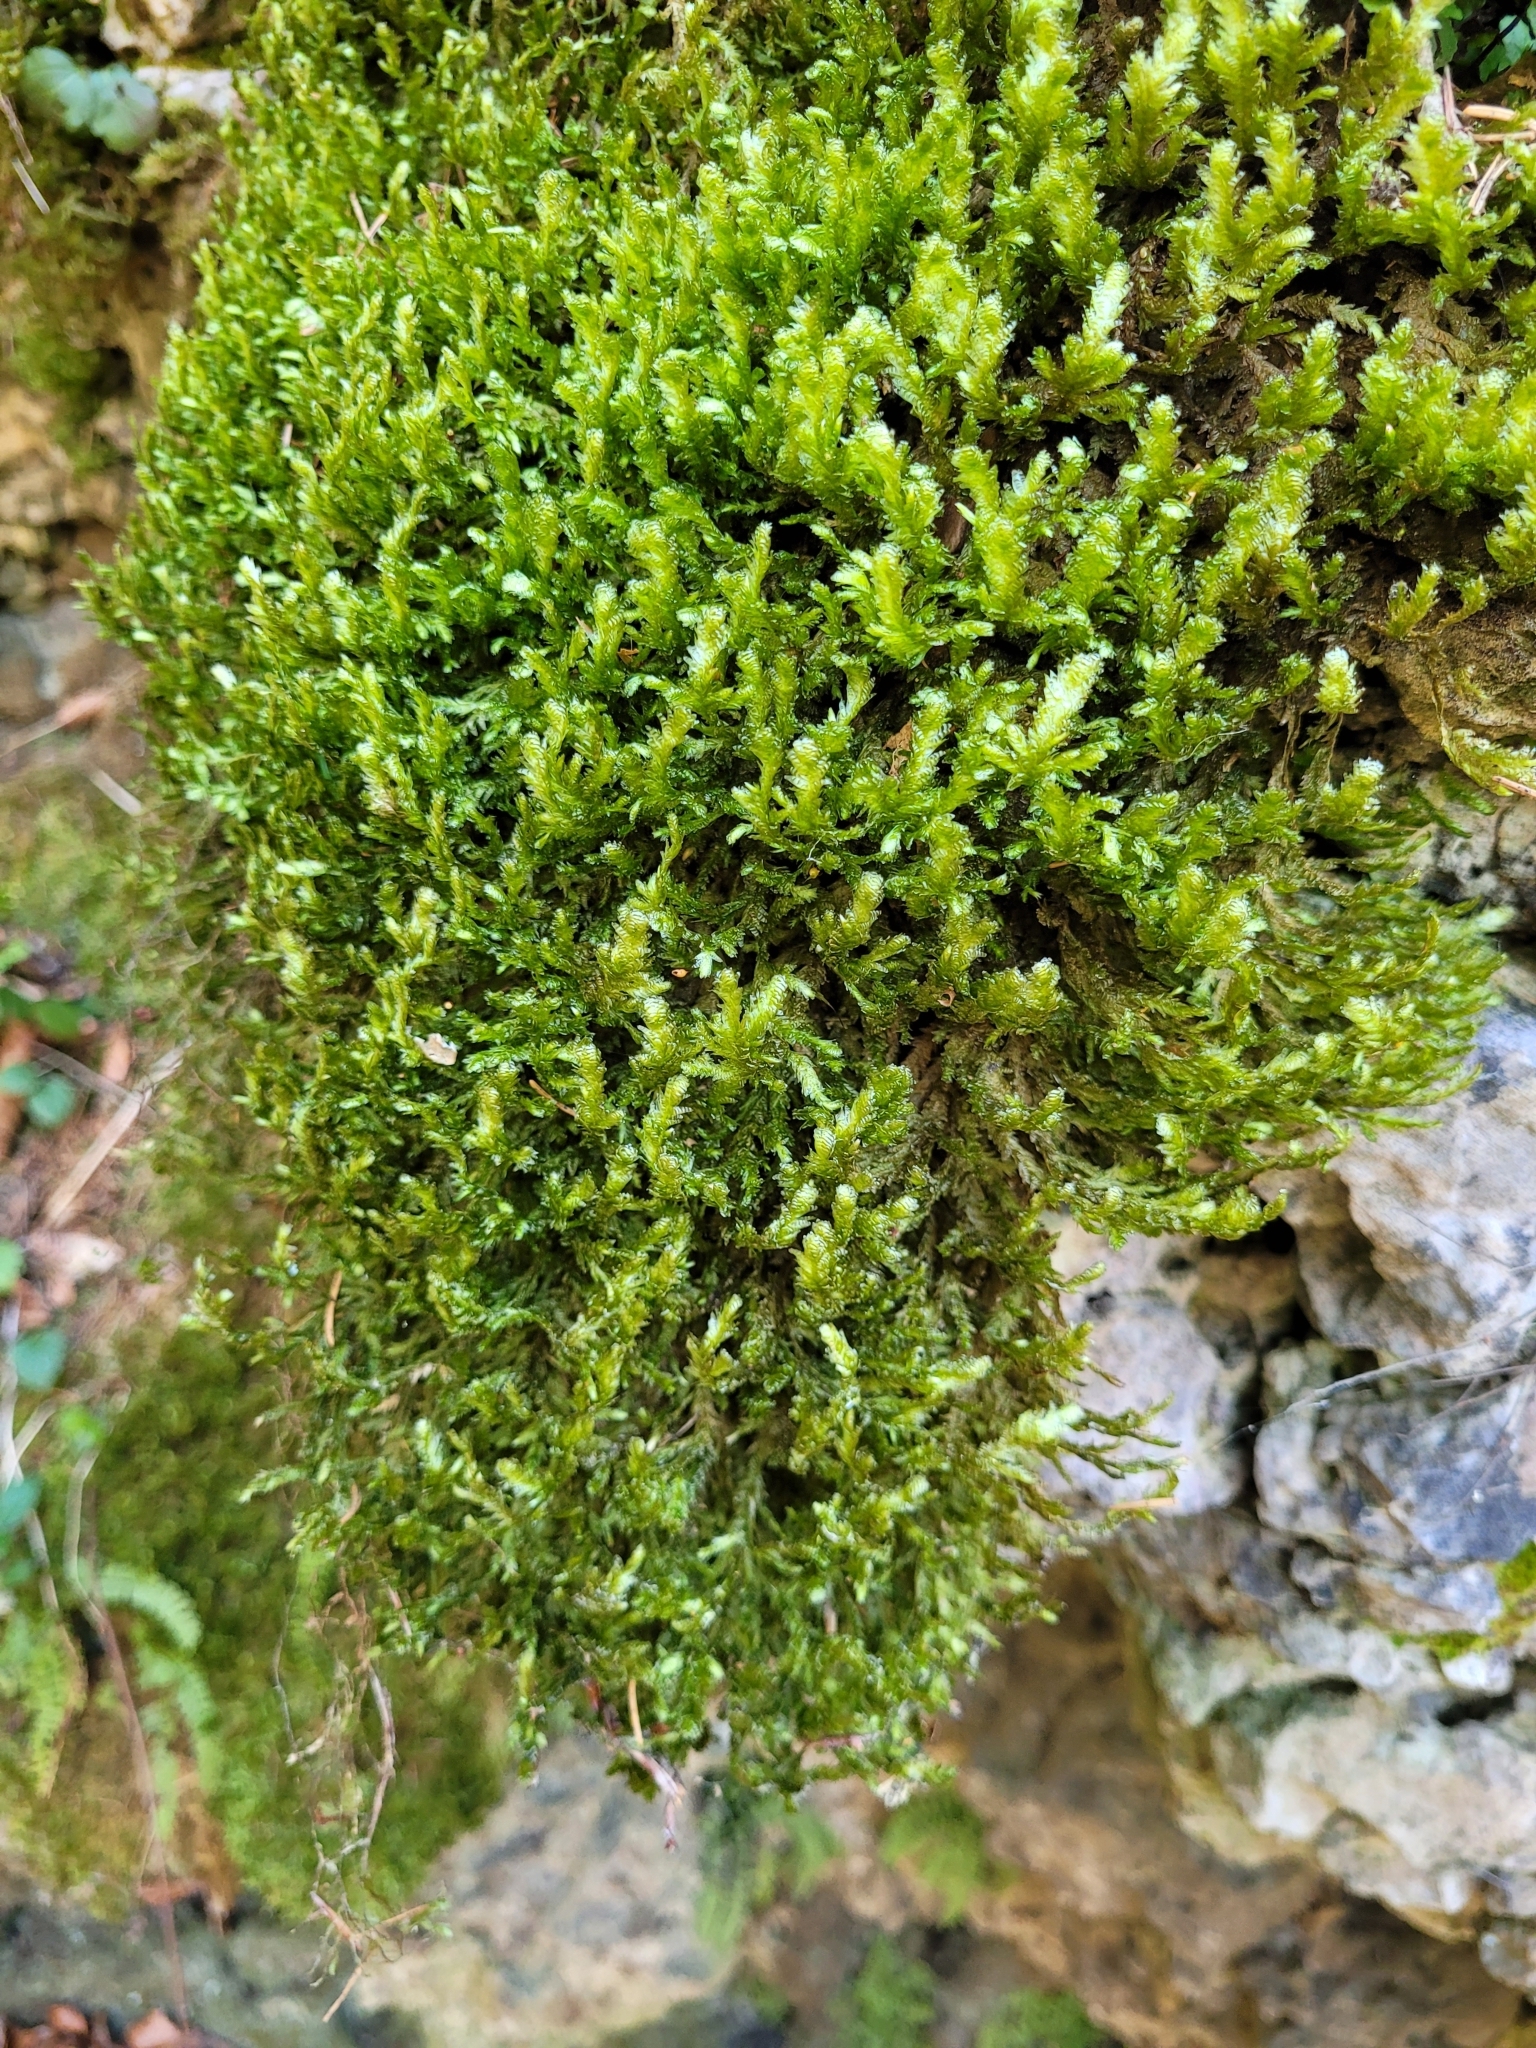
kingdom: Plantae
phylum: Bryophyta
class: Bryopsida
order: Hypnales
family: Neckeraceae
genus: Exsertotheca
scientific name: Exsertotheca crispa
